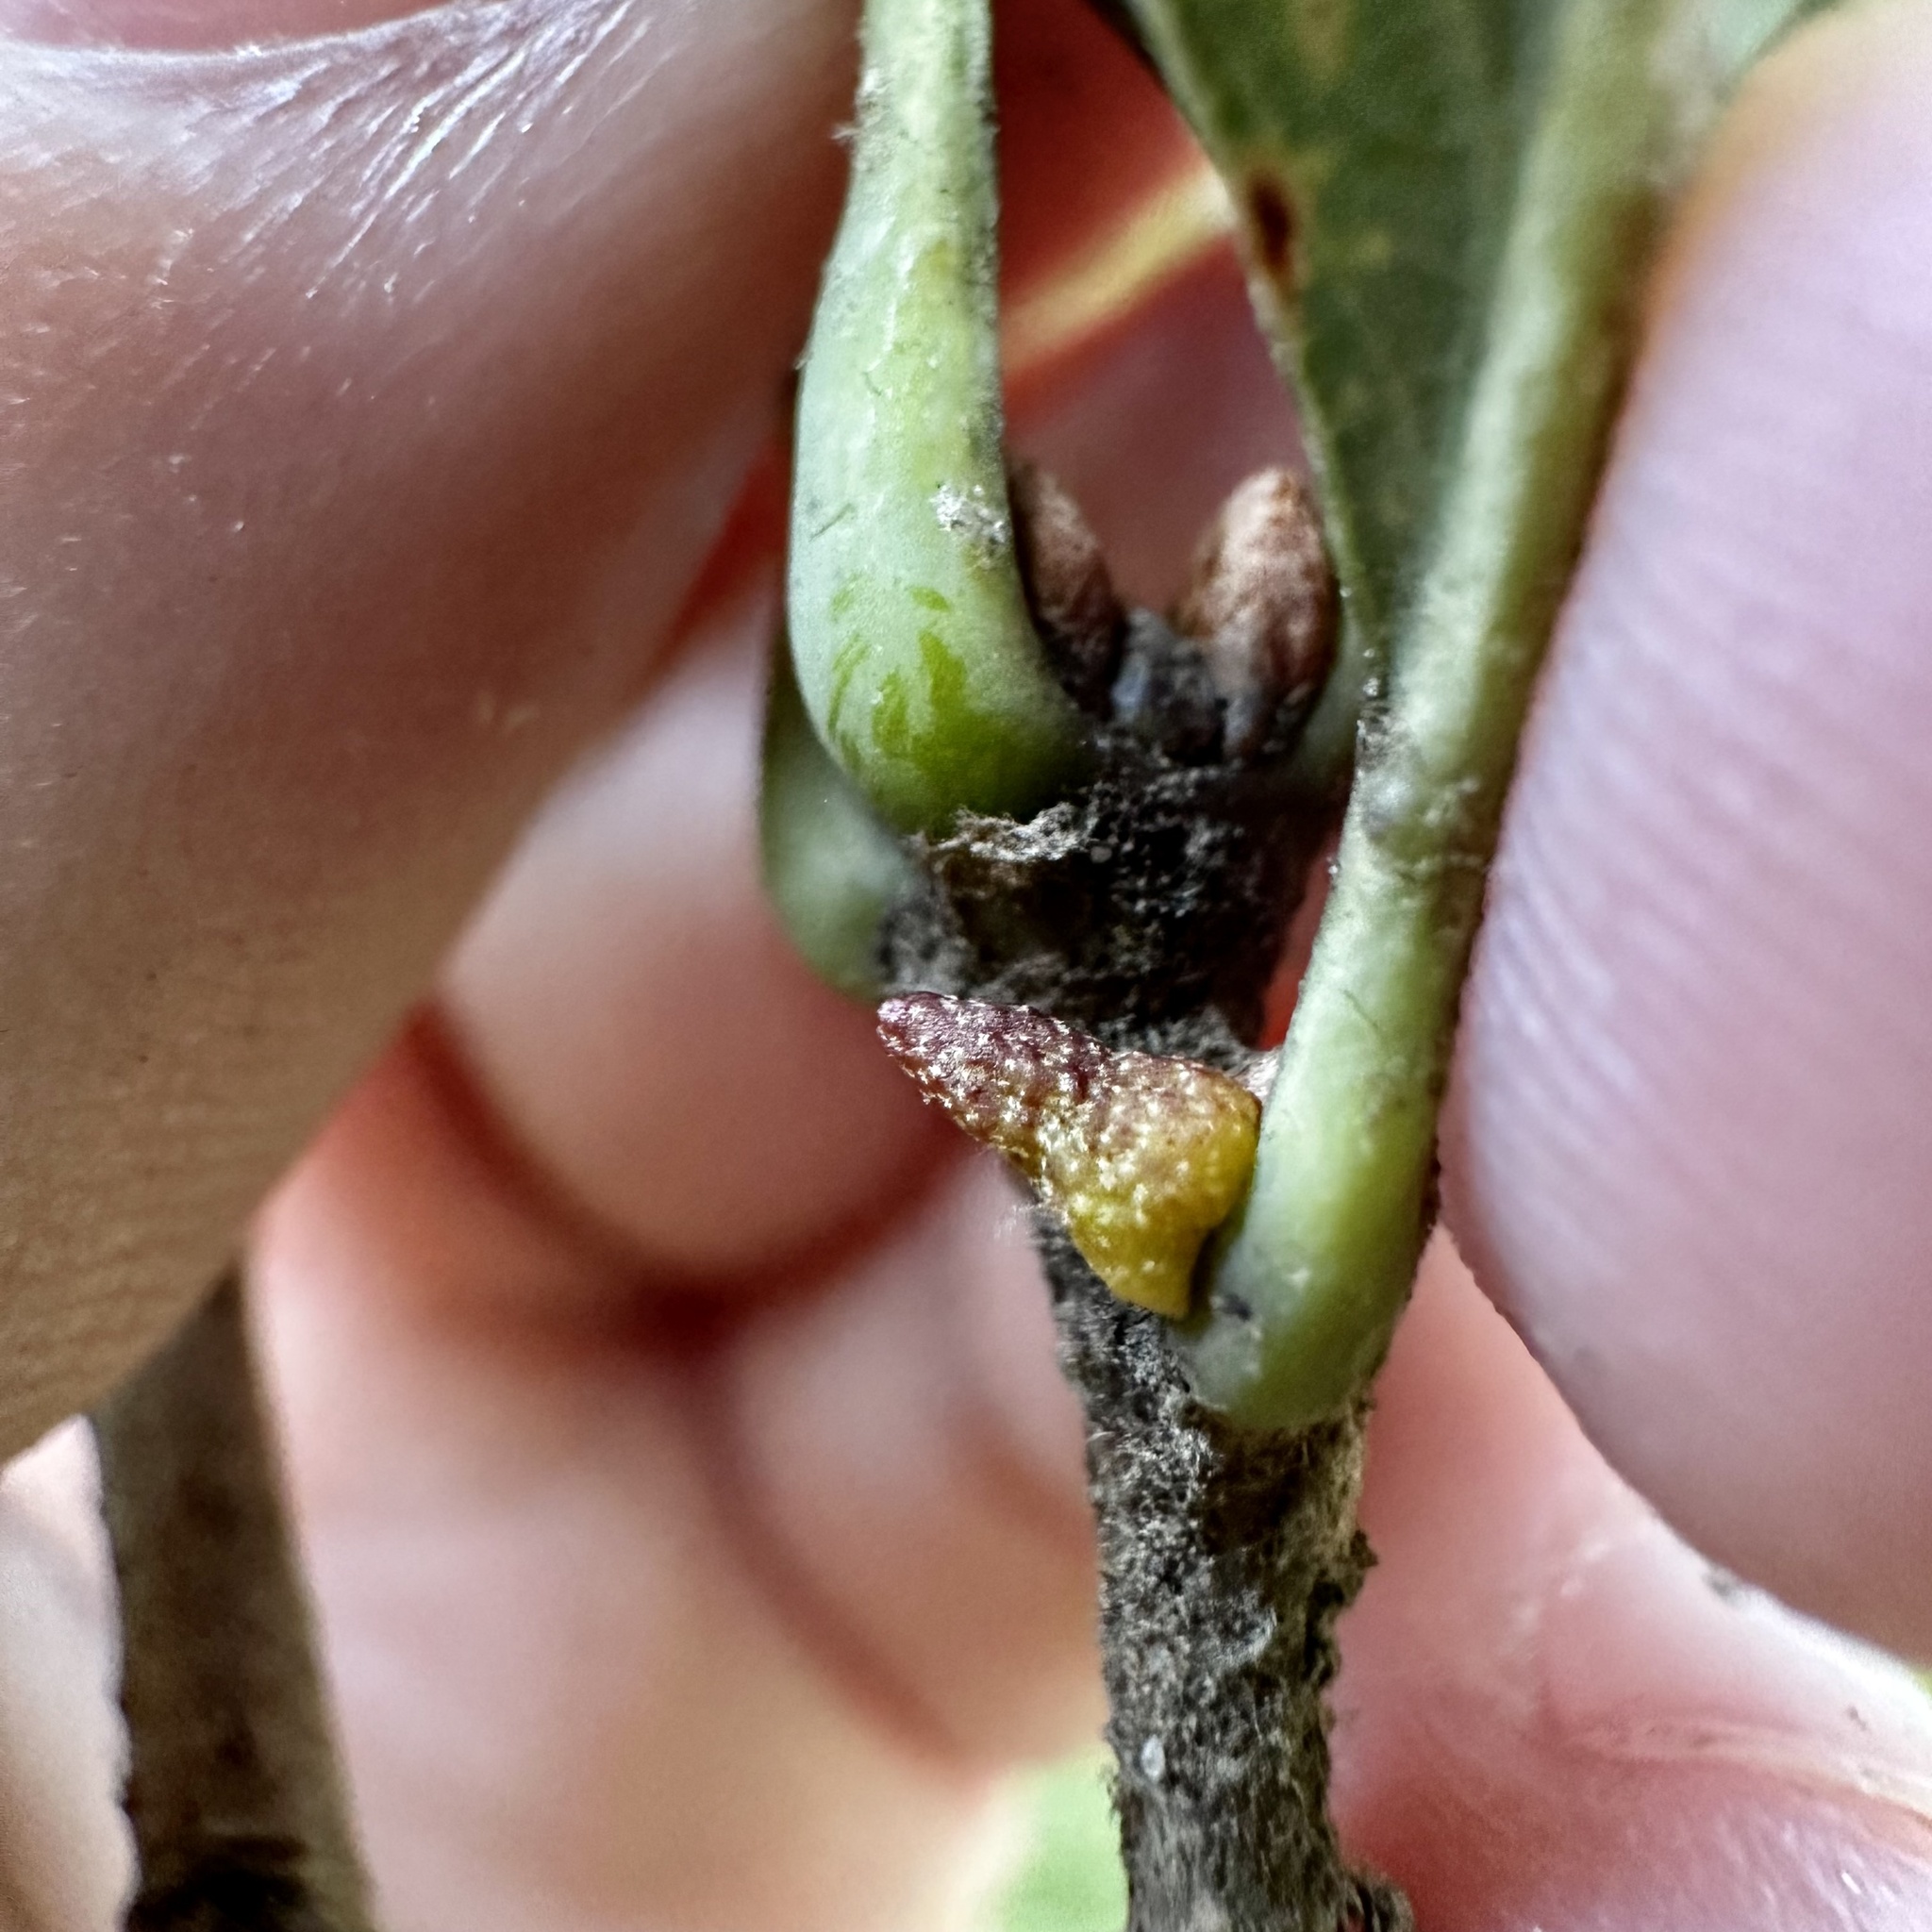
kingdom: Animalia
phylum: Arthropoda
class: Insecta
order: Hymenoptera
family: Cynipidae
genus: Zopheroteras
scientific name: Zopheroteras
